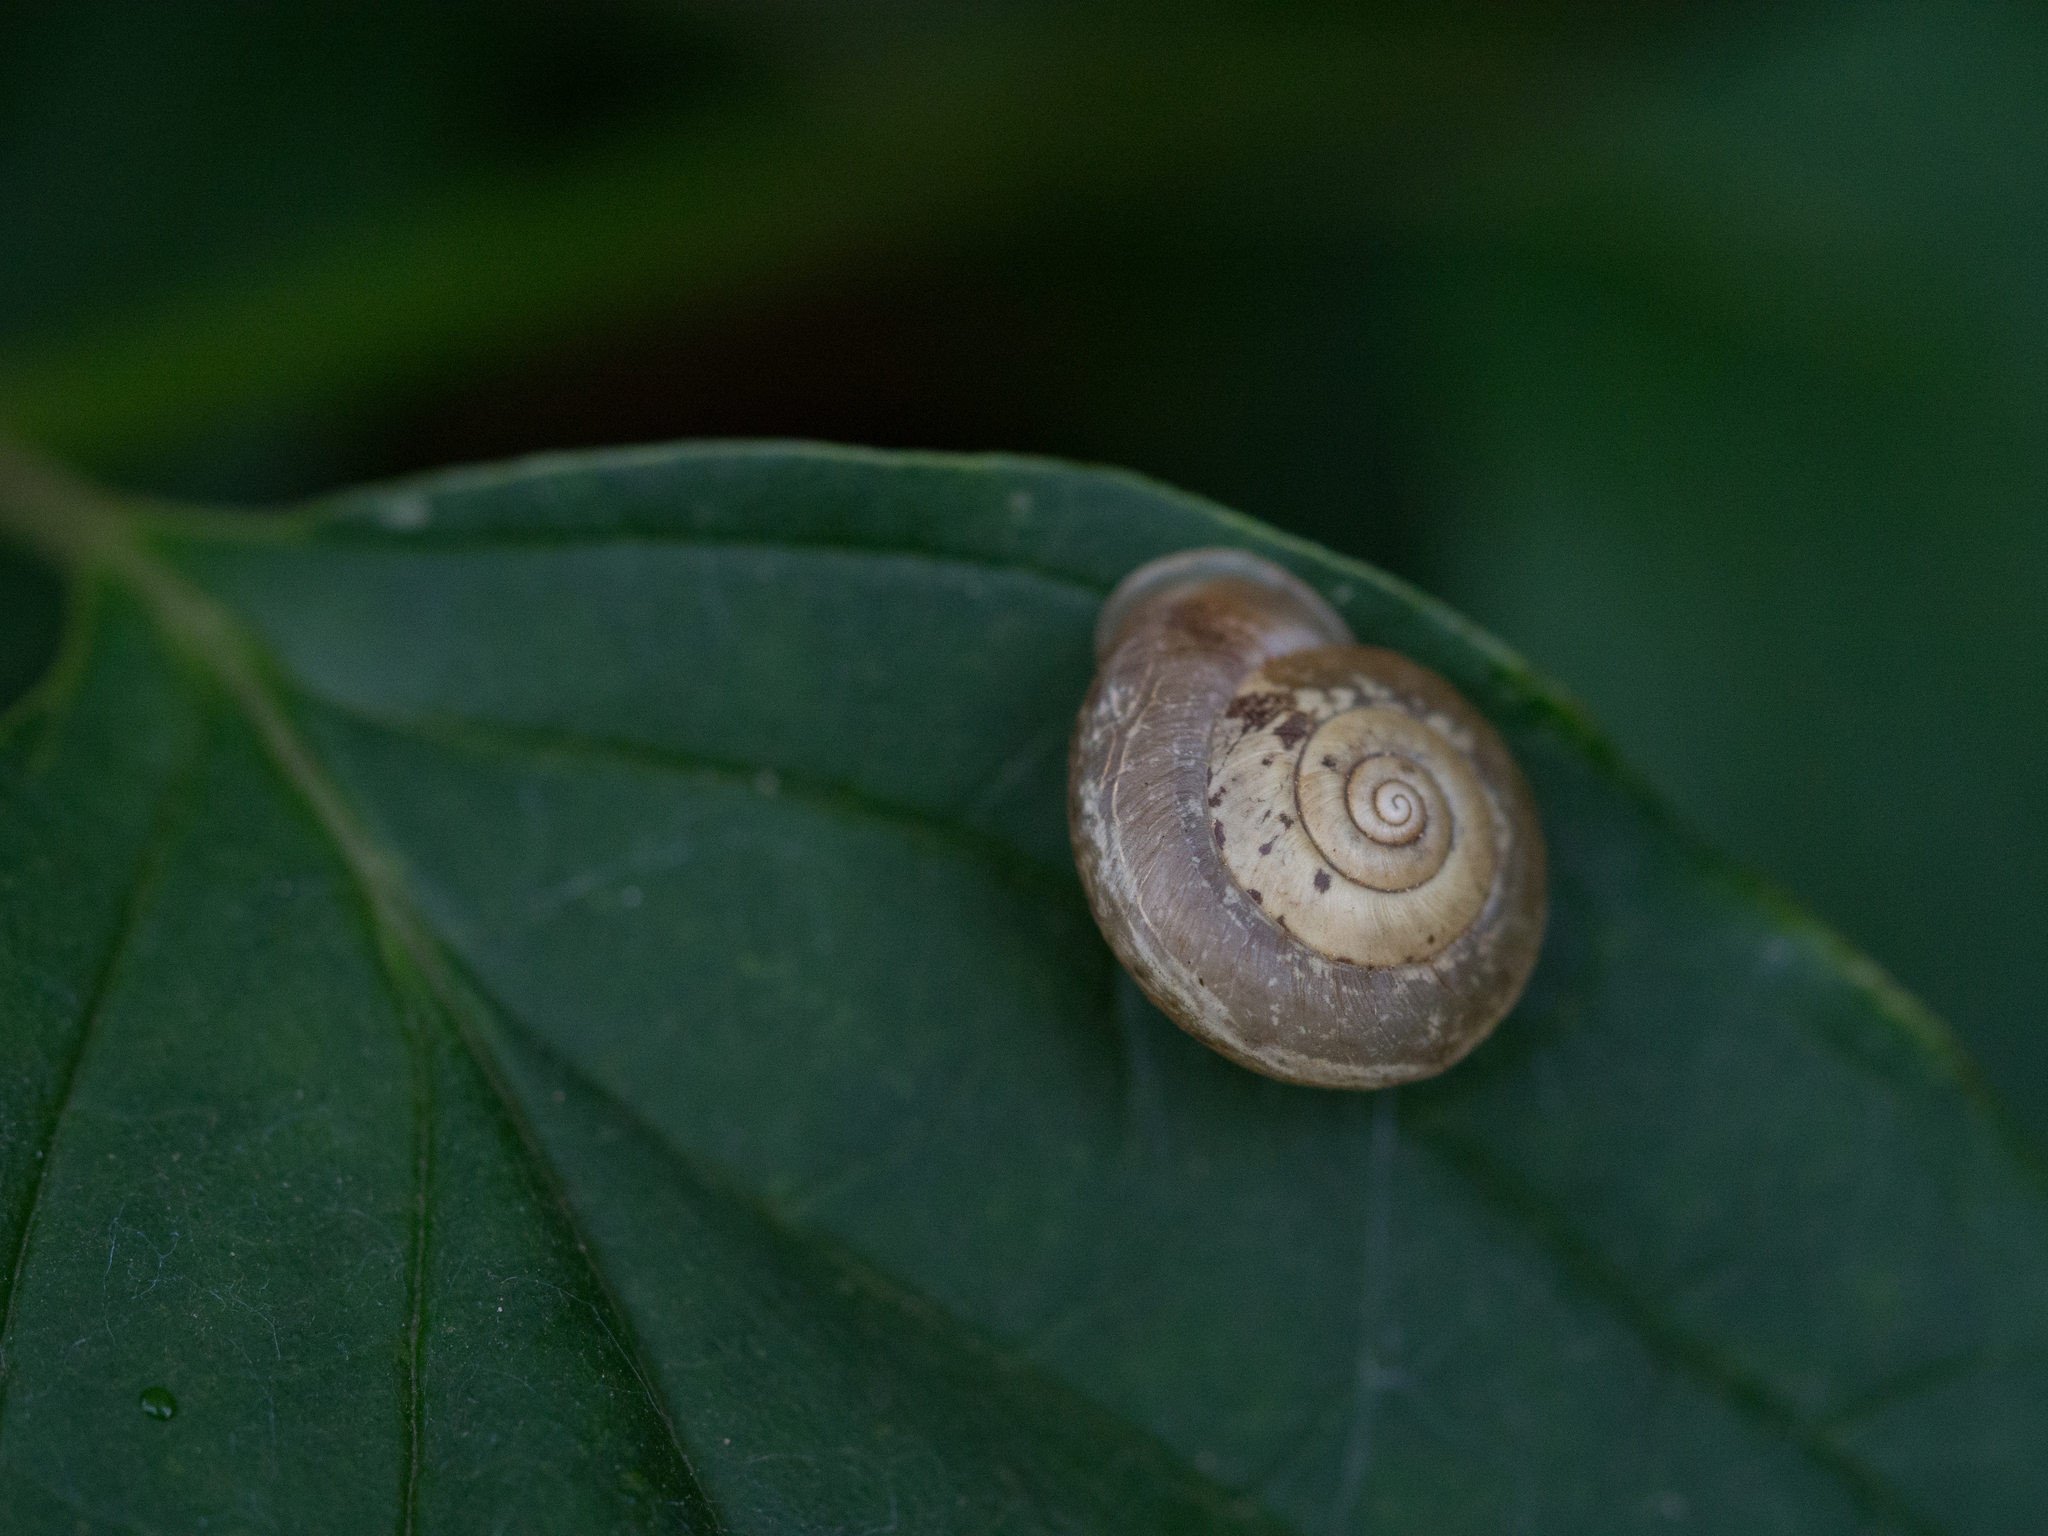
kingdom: Animalia
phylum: Mollusca
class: Gastropoda
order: Stylommatophora
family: Hygromiidae
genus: Urticicola
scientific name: Urticicola umbrosus
